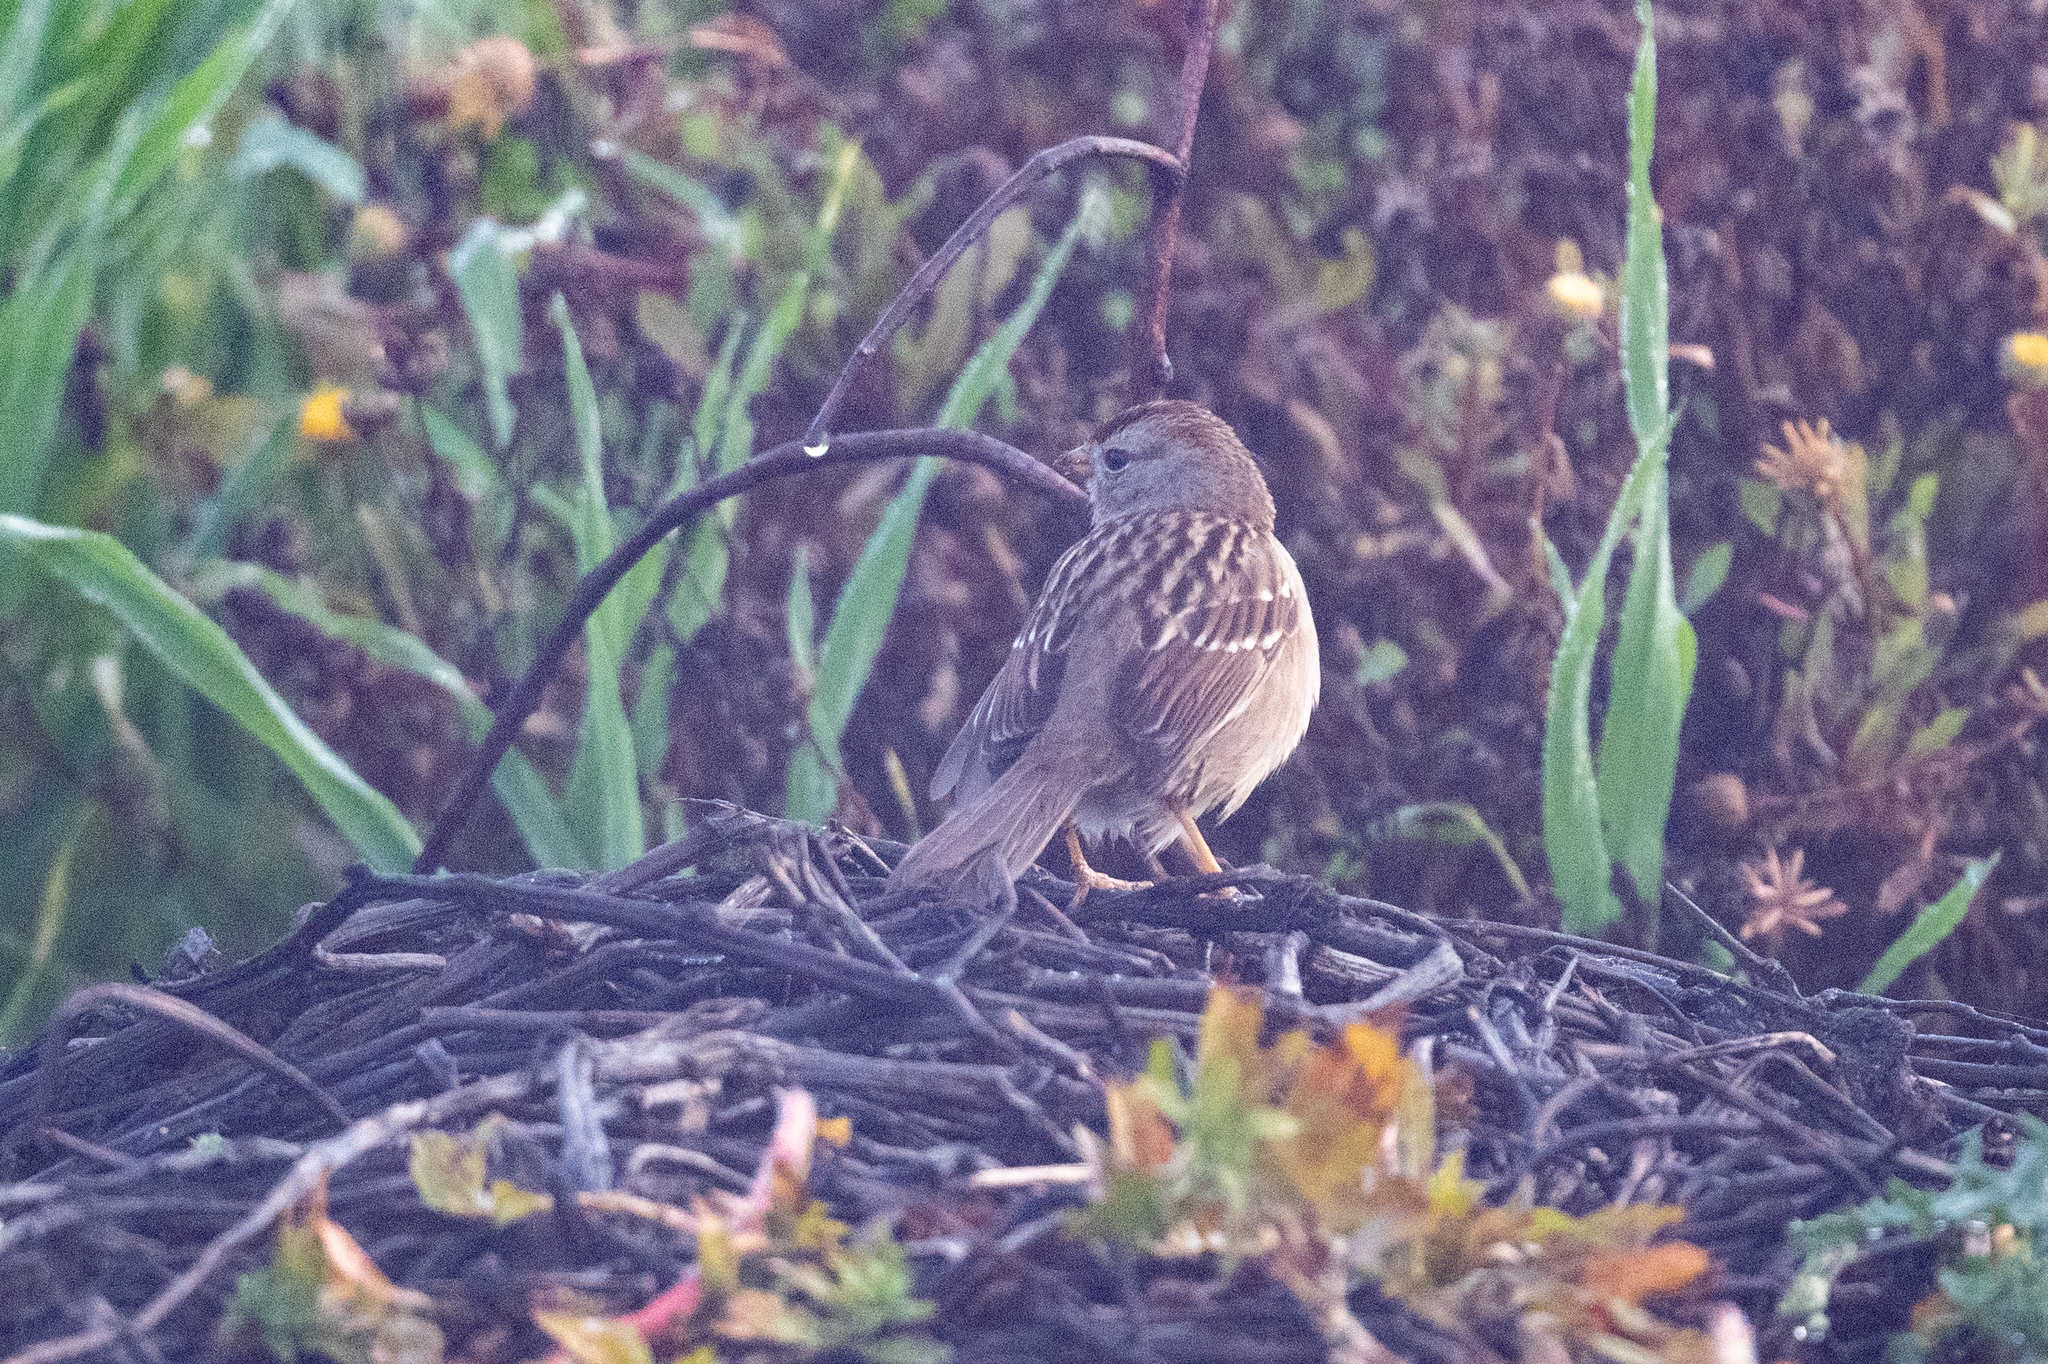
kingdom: Animalia
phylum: Chordata
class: Aves
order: Passeriformes
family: Passerellidae
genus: Zonotrichia
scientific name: Zonotrichia leucophrys
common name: White-crowned sparrow
